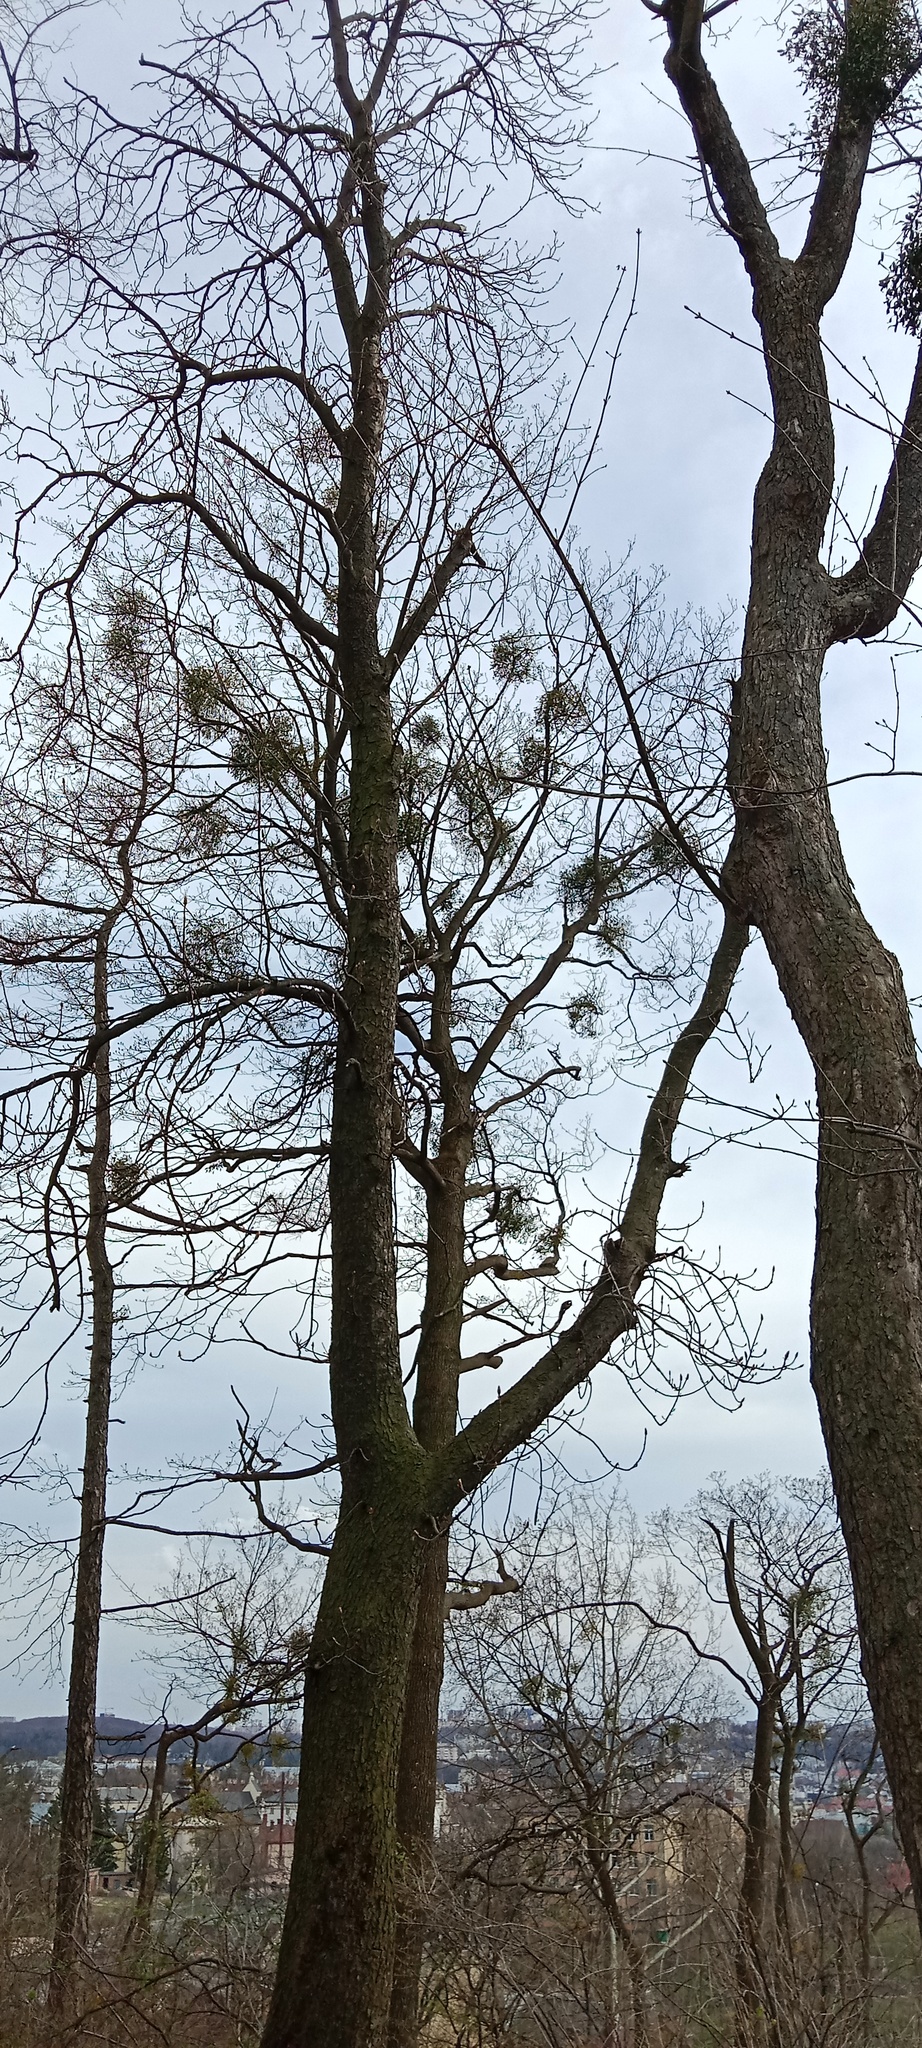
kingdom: Plantae
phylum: Tracheophyta
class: Magnoliopsida
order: Santalales
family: Viscaceae
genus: Viscum
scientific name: Viscum album
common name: Mistletoe
